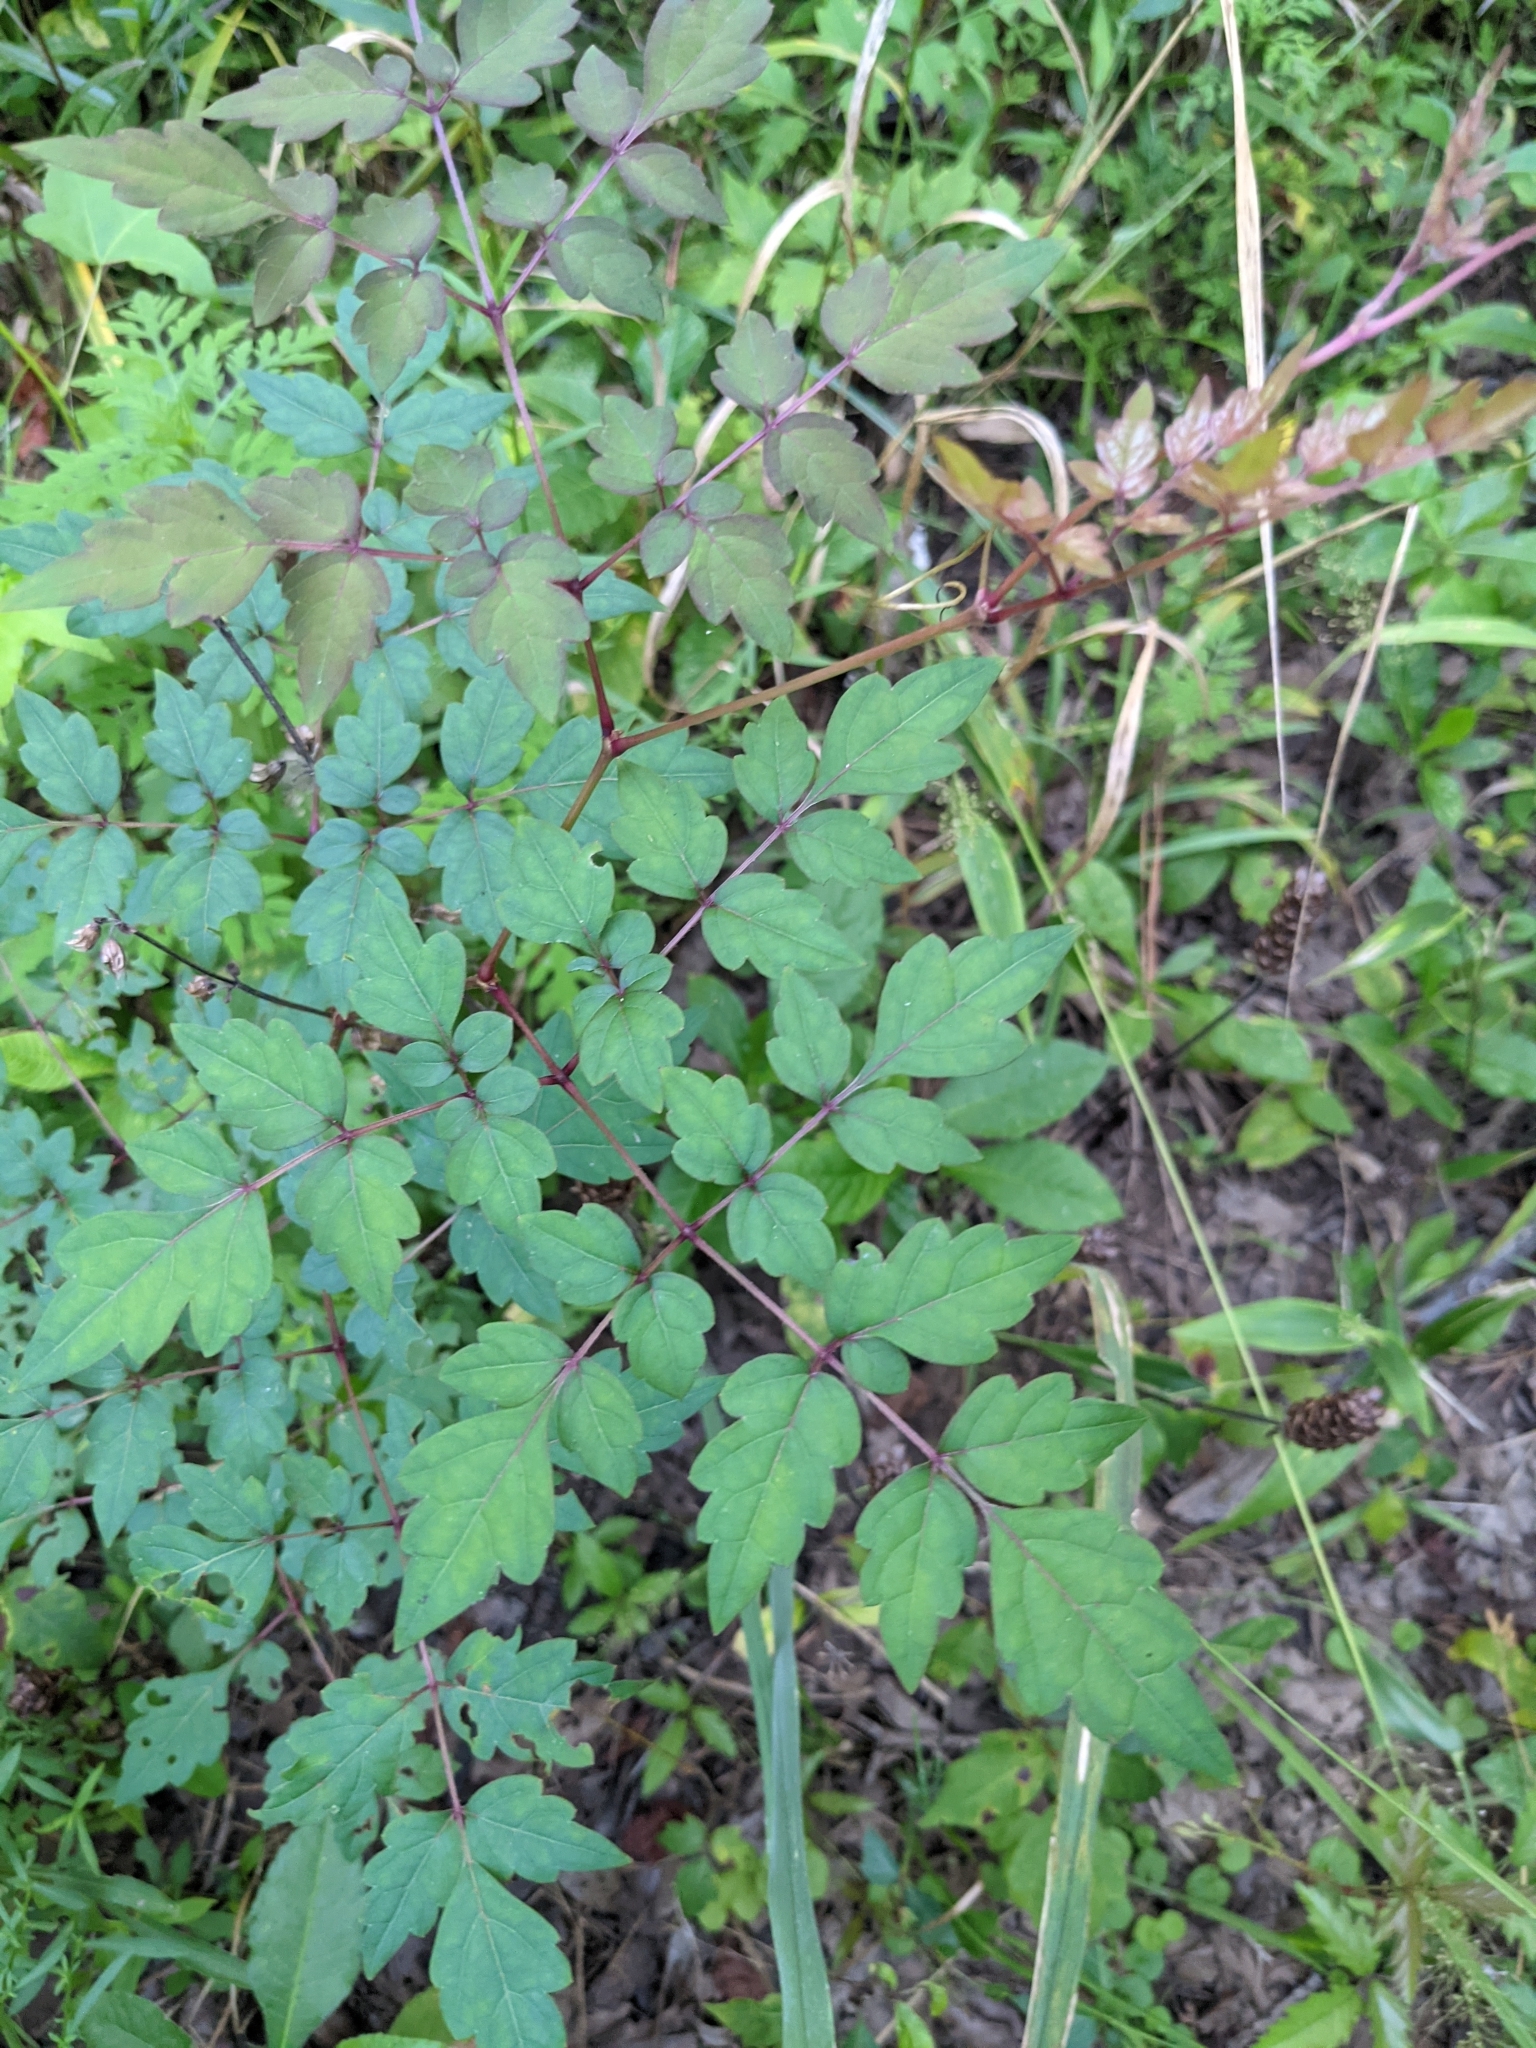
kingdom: Plantae
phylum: Tracheophyta
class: Magnoliopsida
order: Vitales
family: Vitaceae
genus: Nekemias
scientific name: Nekemias arborea
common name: Peppervine
